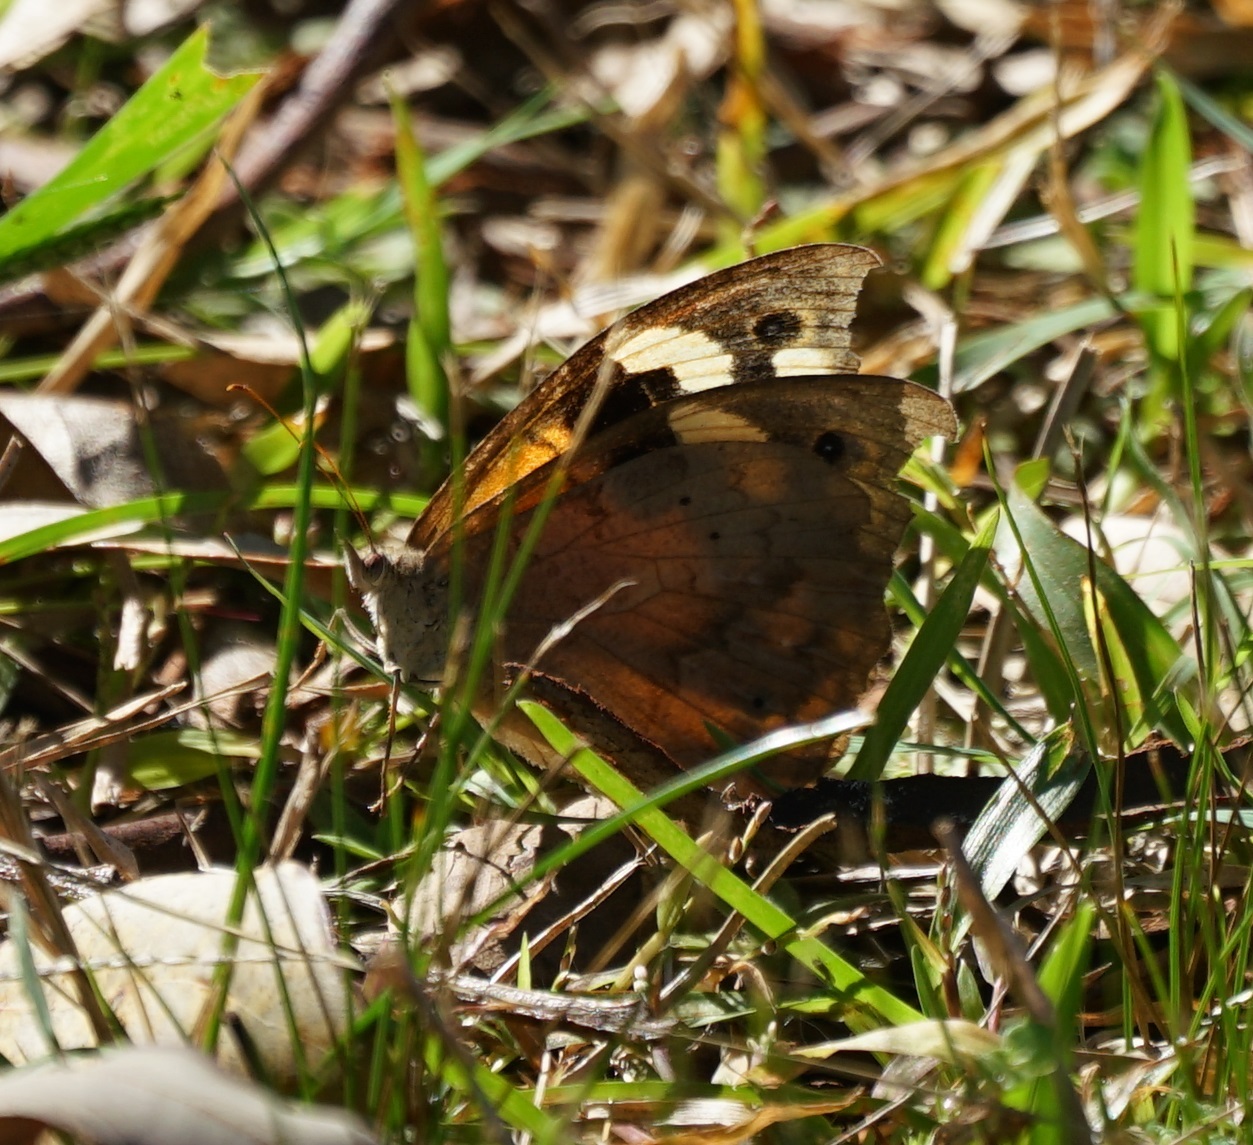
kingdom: Animalia
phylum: Arthropoda
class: Insecta
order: Lepidoptera
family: Nymphalidae
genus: Heteronympha
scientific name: Heteronympha merope
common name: Common brown
